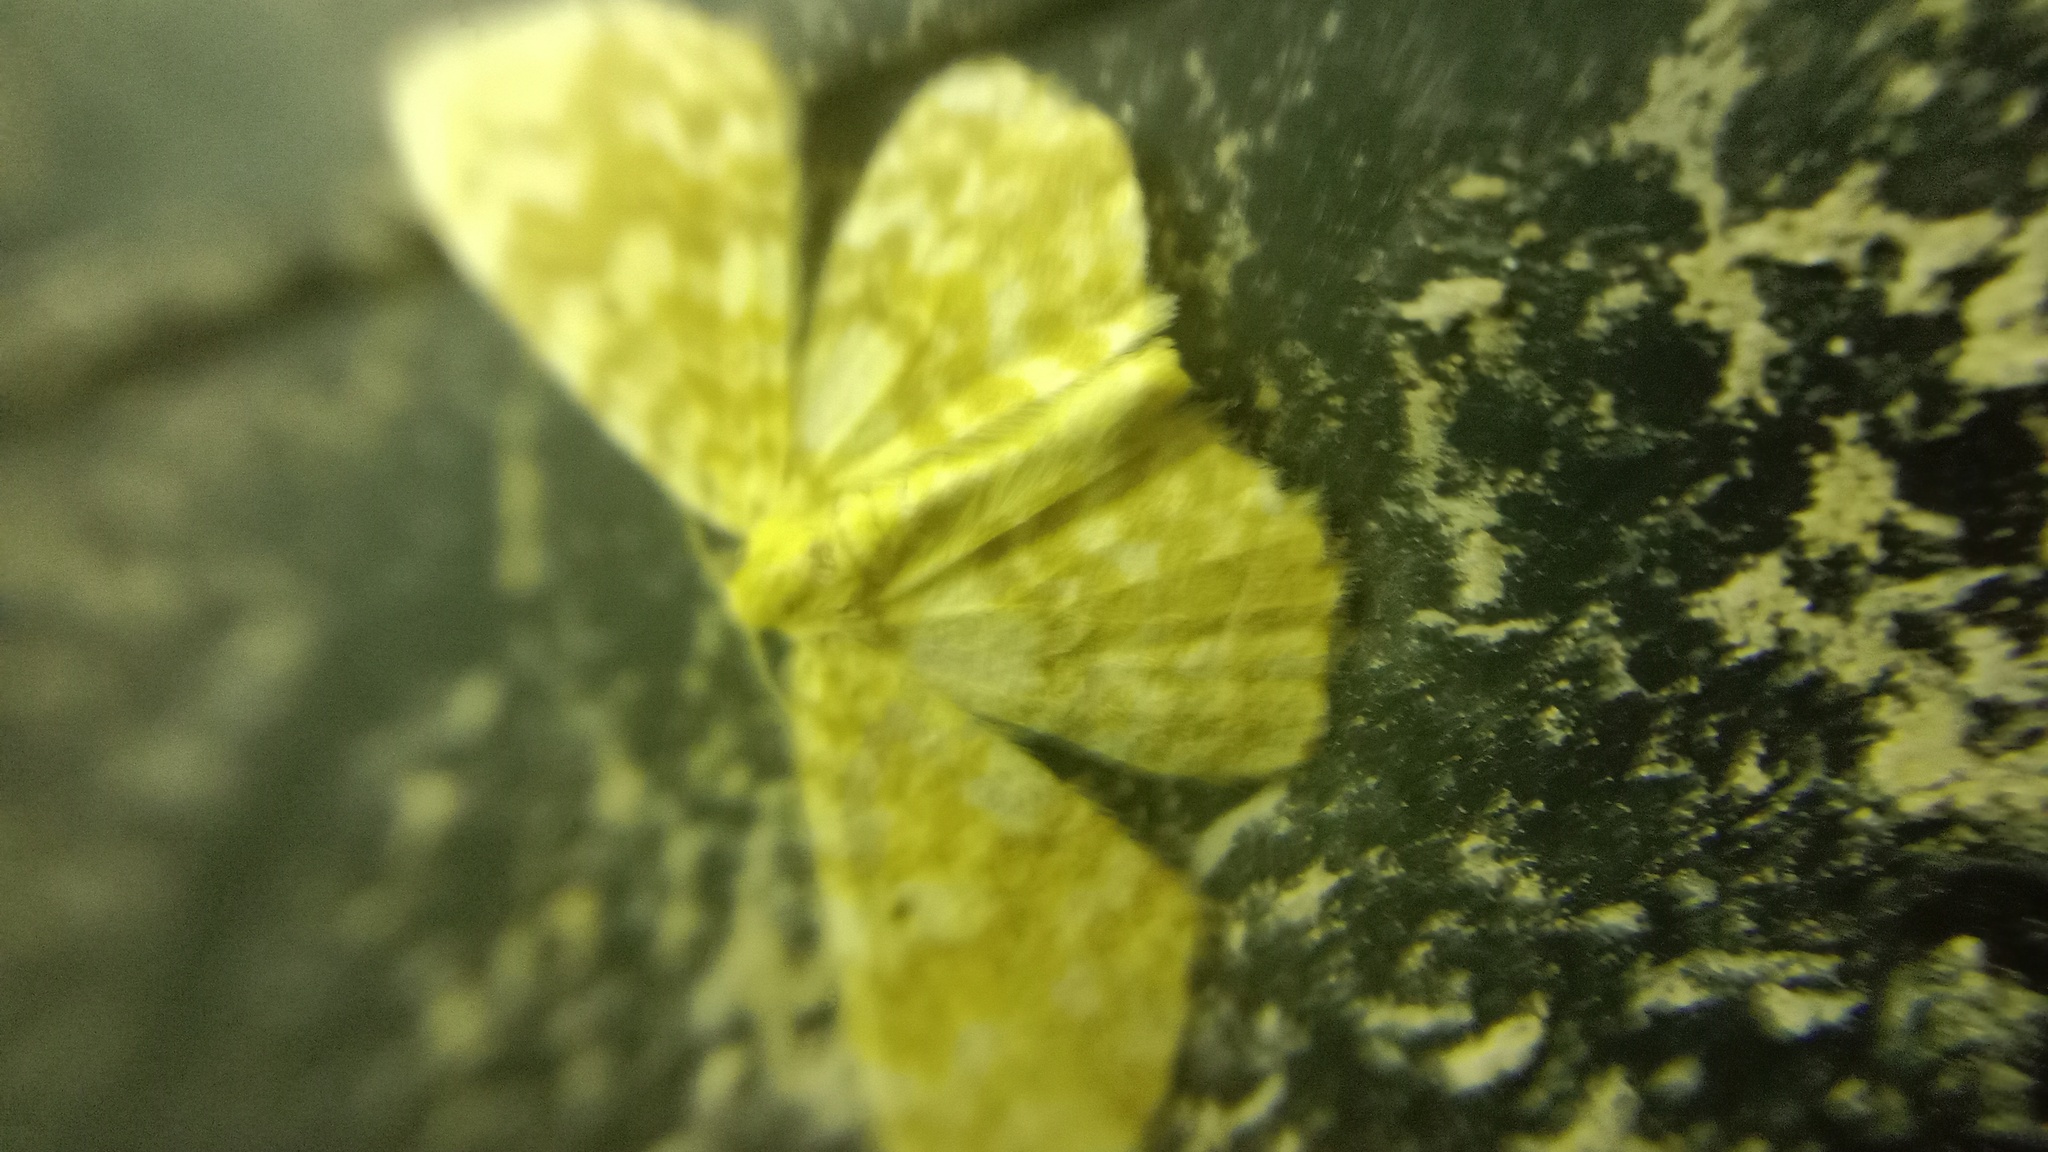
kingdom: Animalia
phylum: Arthropoda
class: Insecta
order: Lepidoptera
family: Geometridae
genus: Hydrelia
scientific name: Hydrelia flammeolaria
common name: Small yellow wave
